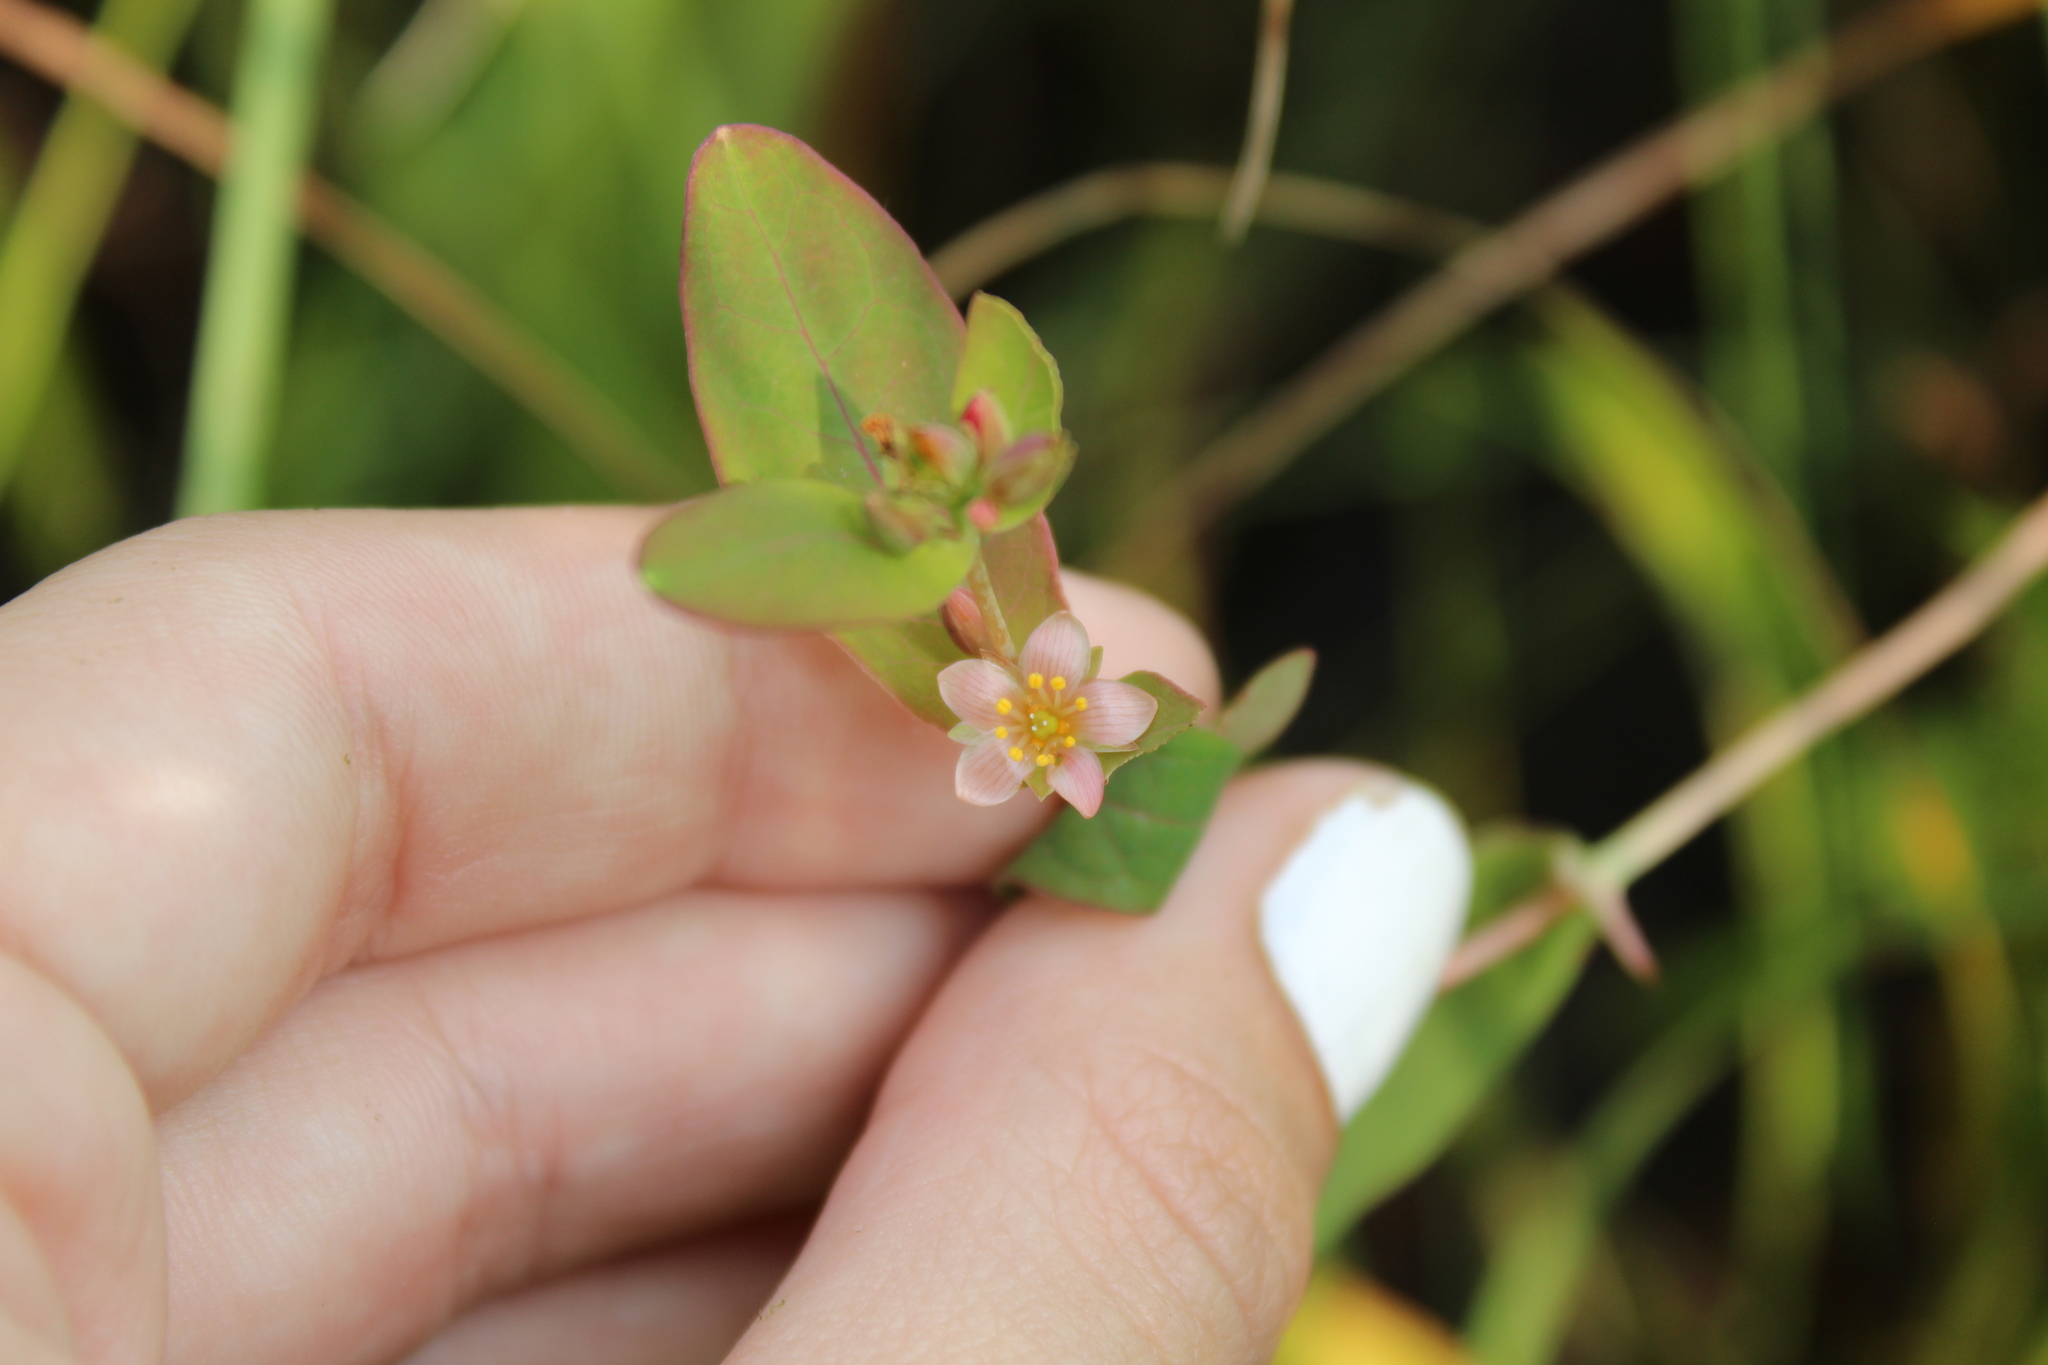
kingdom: Plantae
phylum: Tracheophyta
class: Magnoliopsida
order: Malpighiales
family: Hypericaceae
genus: Triadenum
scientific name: Triadenum virginicum
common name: Marsh st. john's-wort
